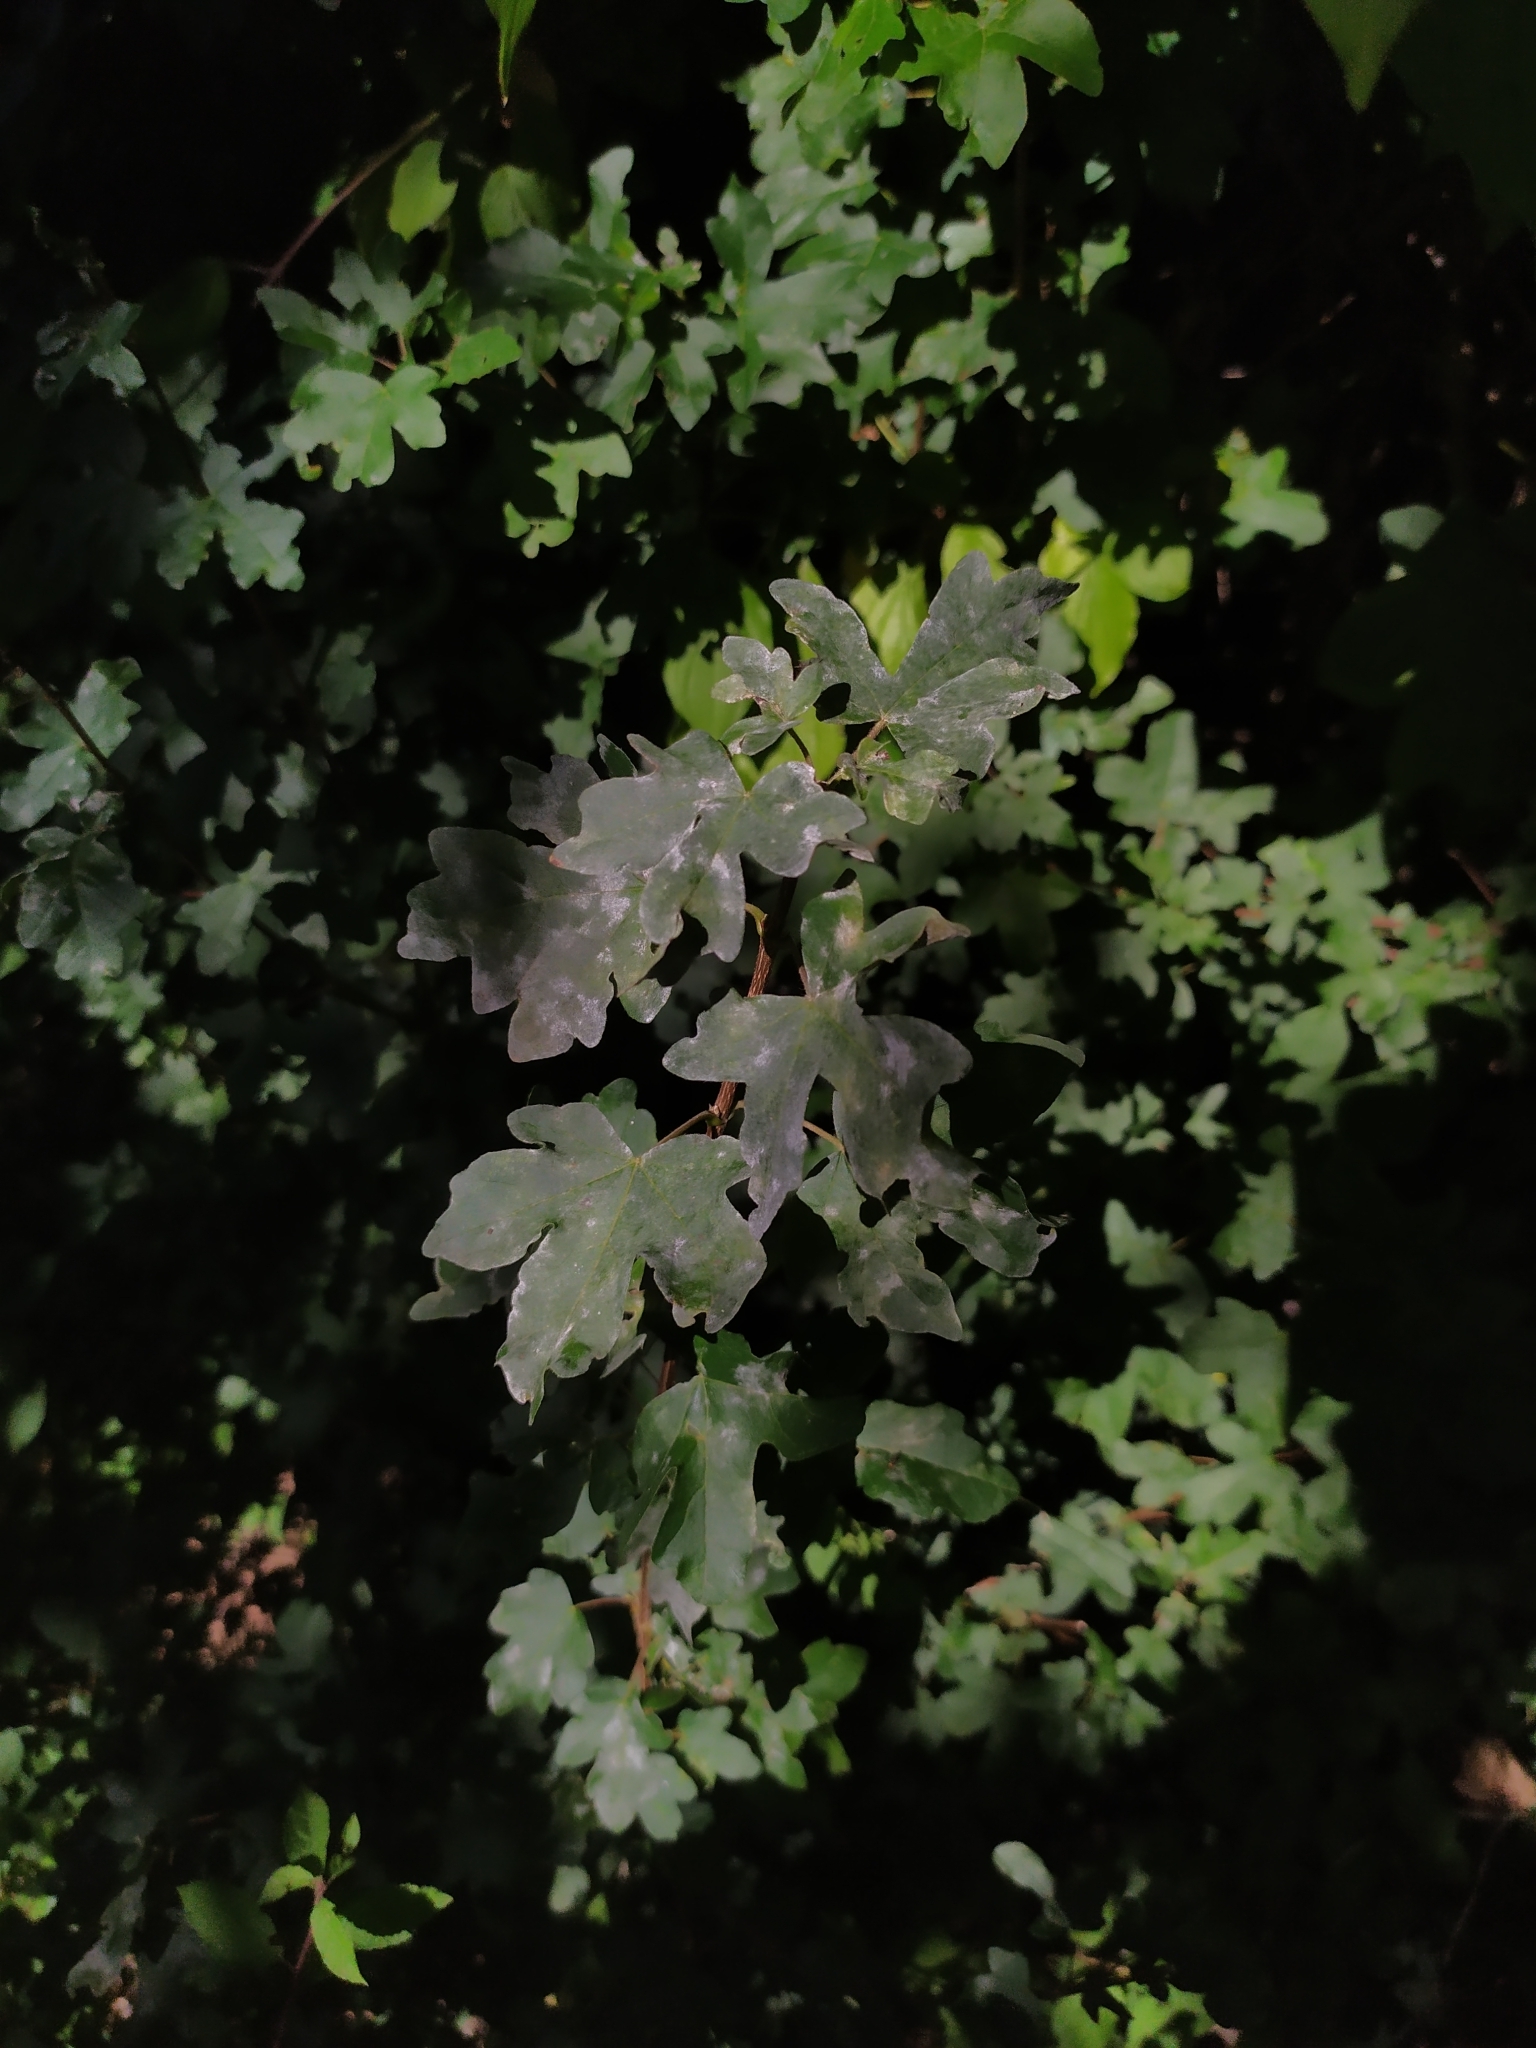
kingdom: Fungi
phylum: Ascomycota
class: Leotiomycetes
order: Helotiales
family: Erysiphaceae
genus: Sawadaea
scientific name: Sawadaea bicornis
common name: Maple mildew
